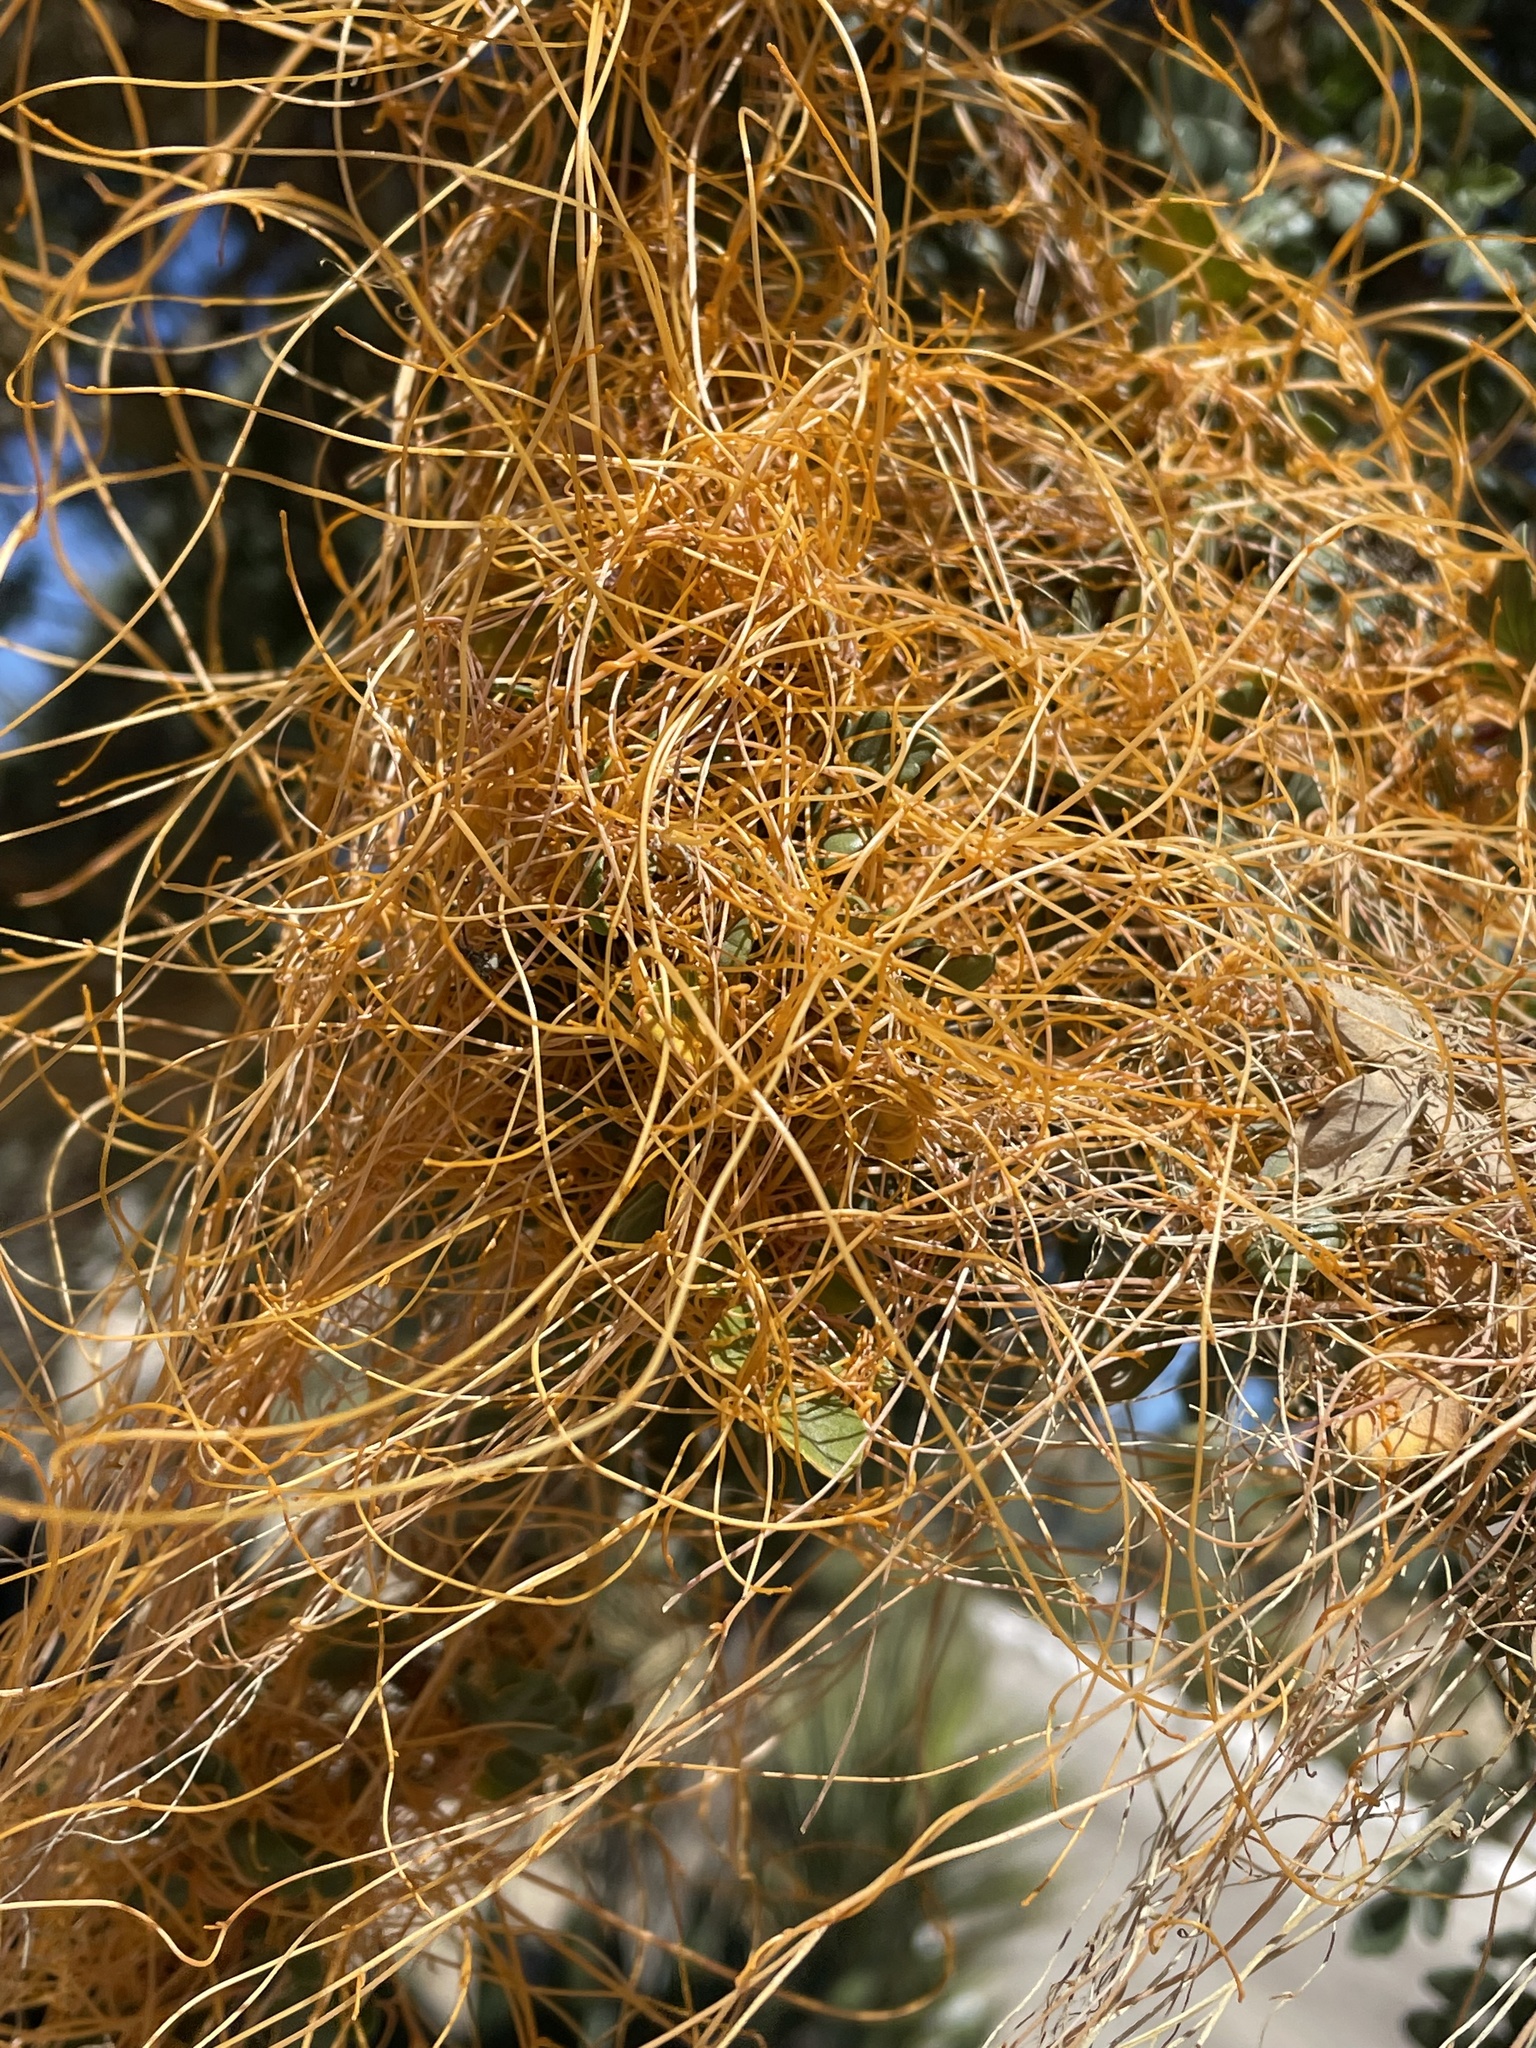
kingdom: Plantae
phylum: Tracheophyta
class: Magnoliopsida
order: Solanales
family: Convolvulaceae
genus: Cuscuta
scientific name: Cuscuta veatchii
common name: Veatch's dodder
